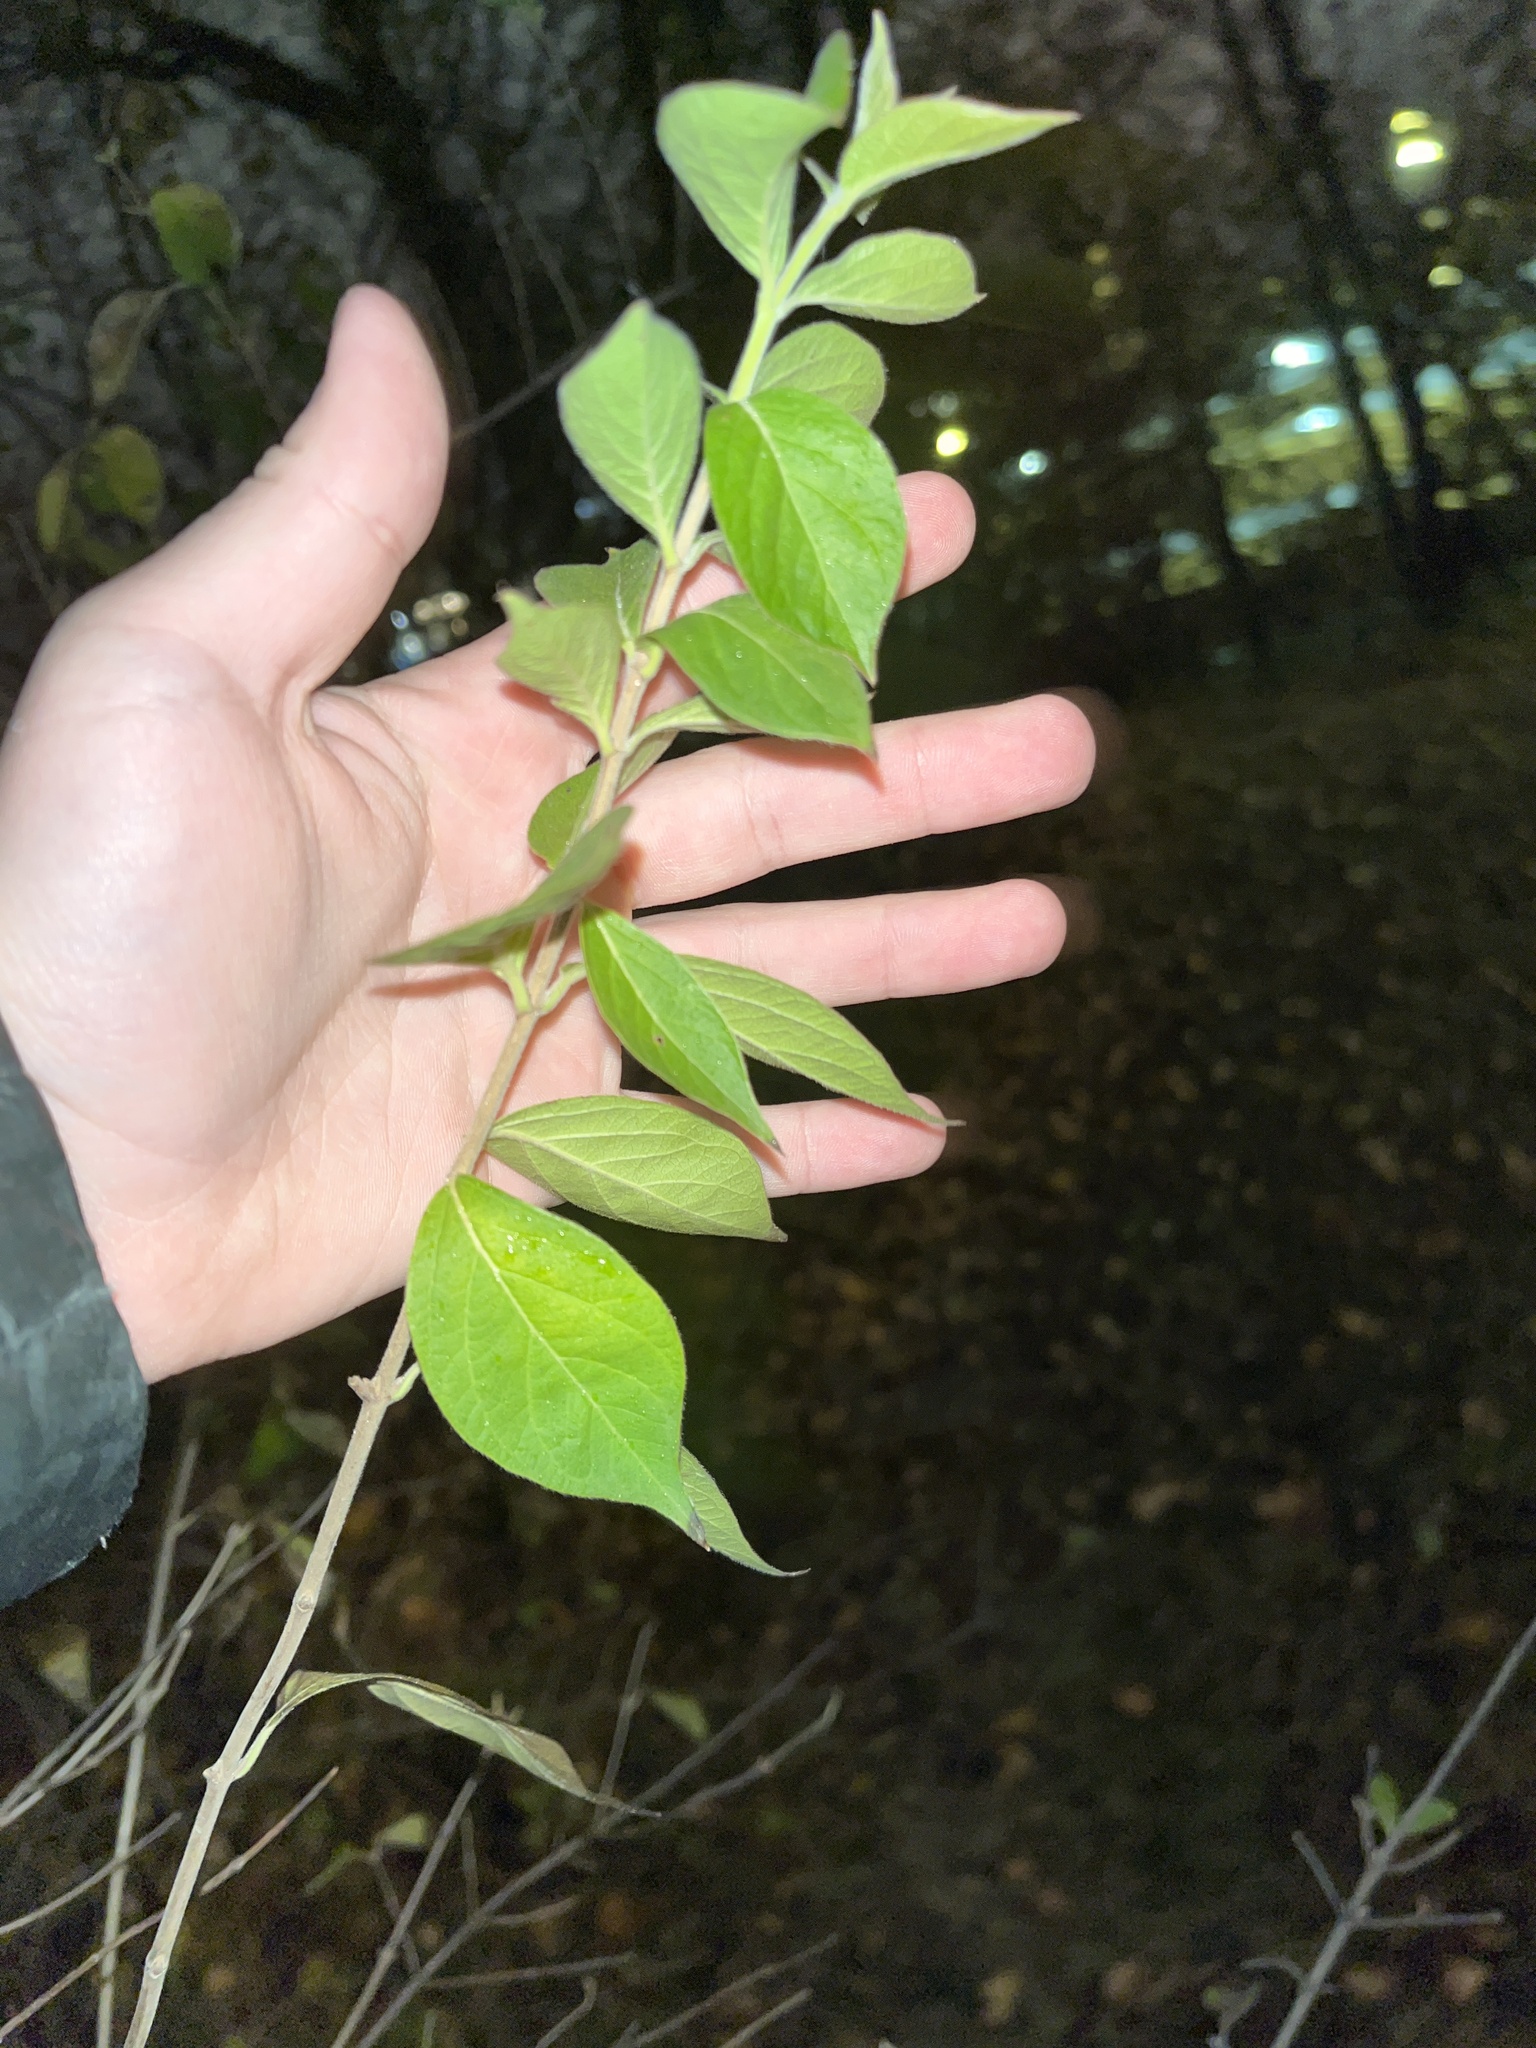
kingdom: Plantae
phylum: Tracheophyta
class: Magnoliopsida
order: Dipsacales
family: Caprifoliaceae
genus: Lonicera
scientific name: Lonicera maackii
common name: Amur honeysuckle
